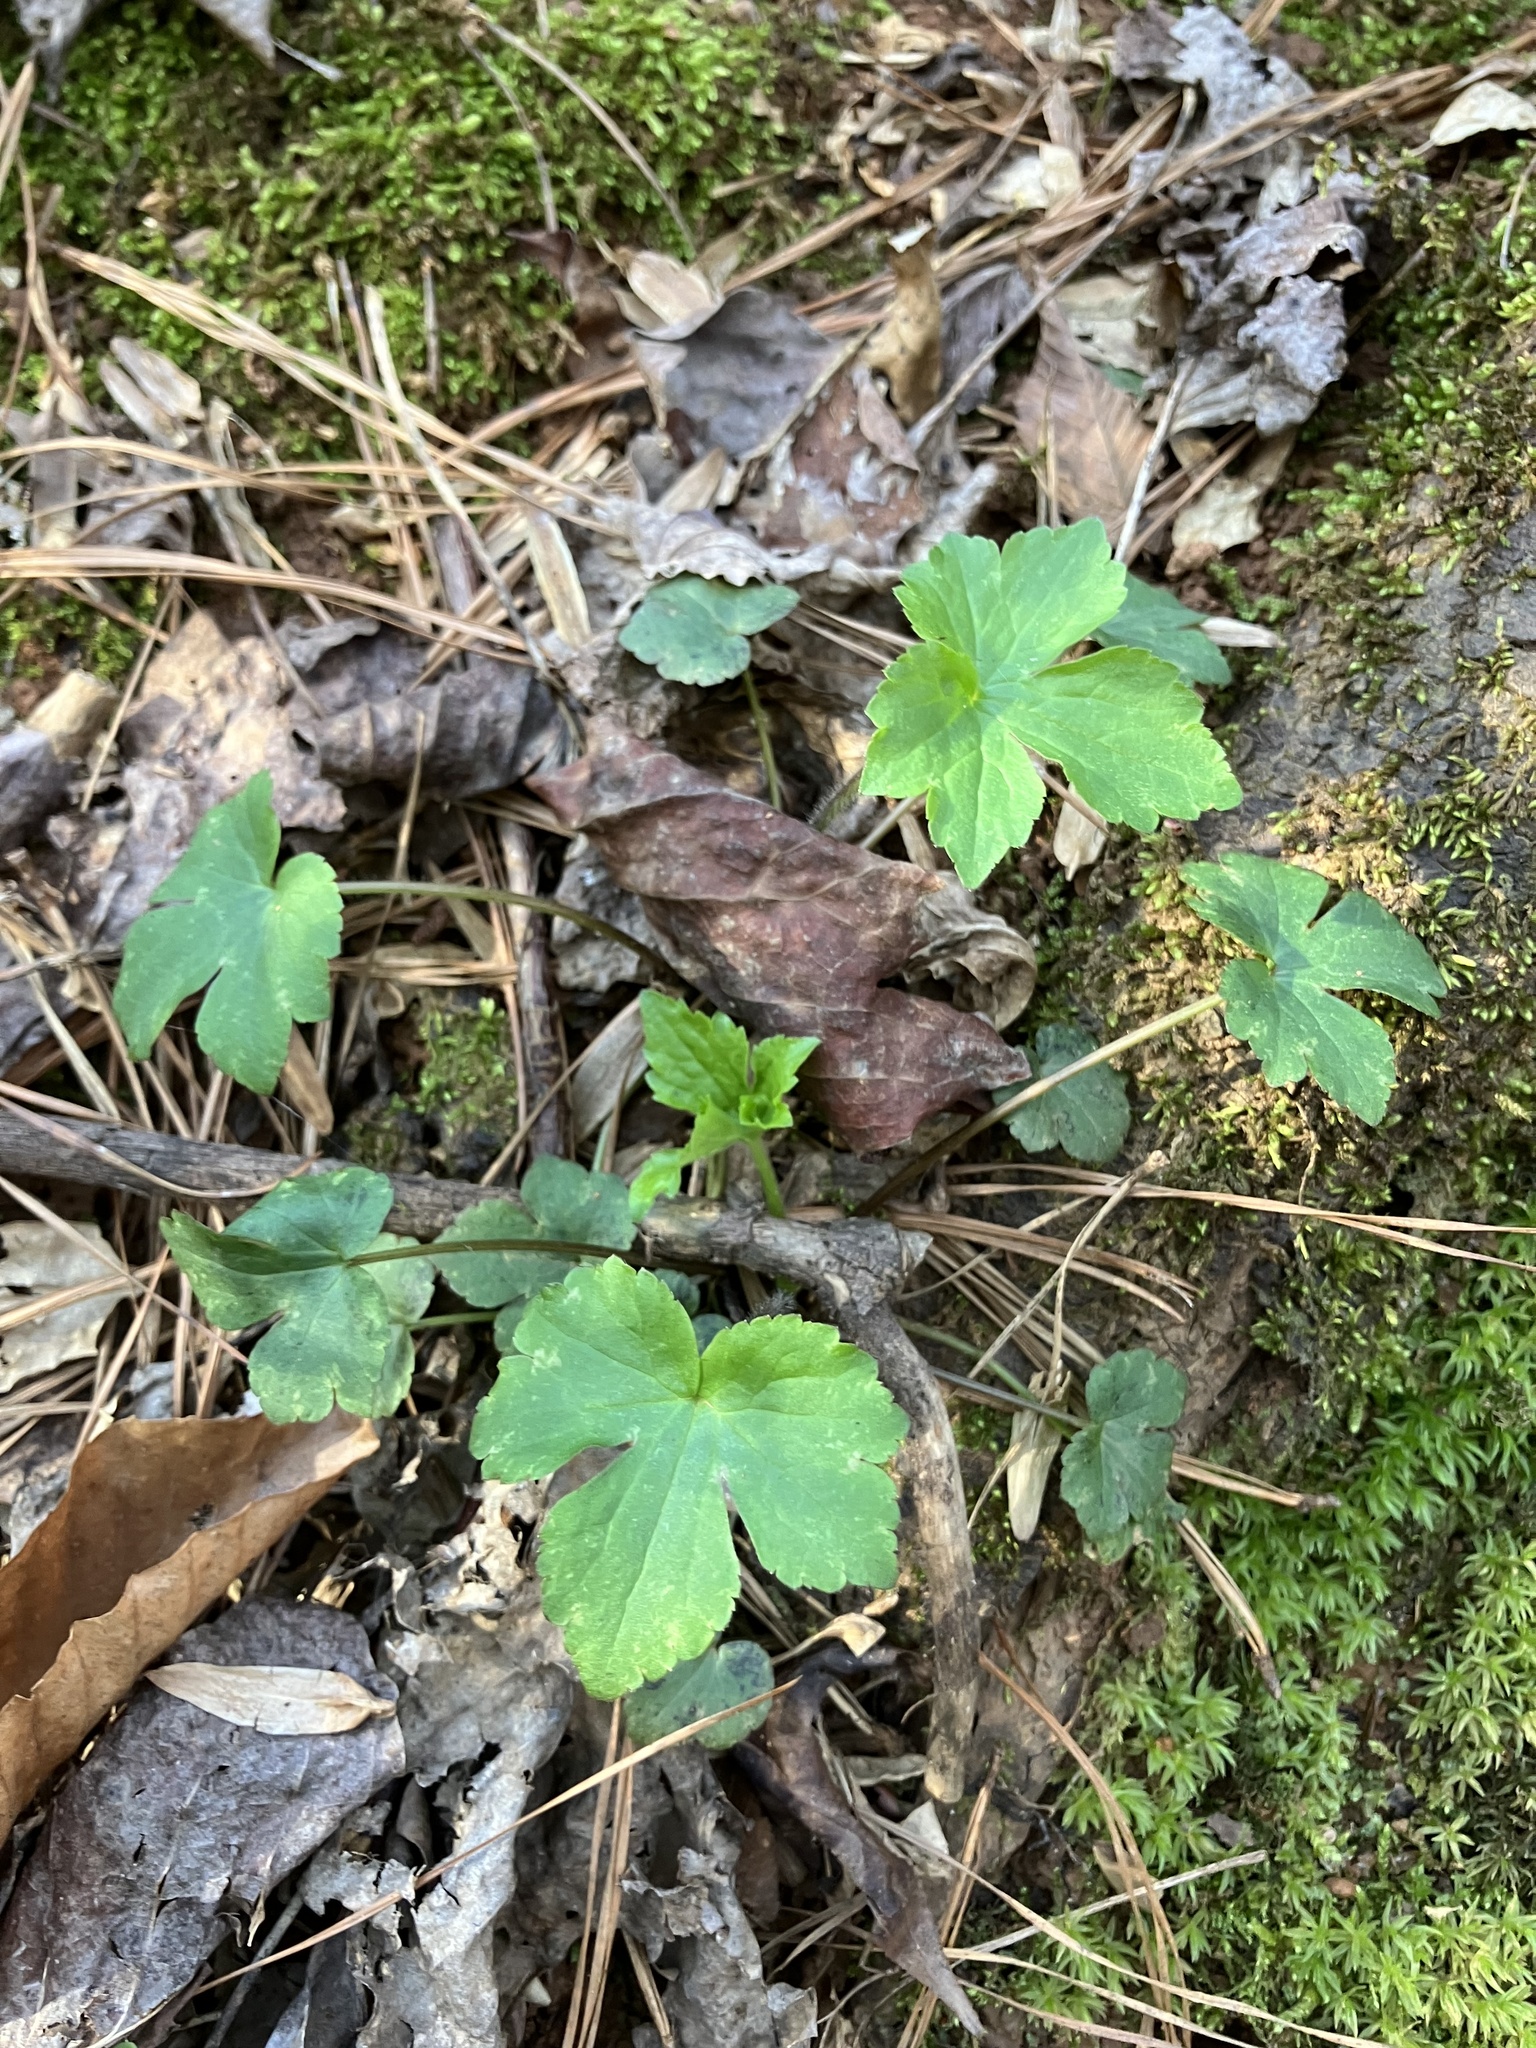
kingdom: Plantae
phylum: Tracheophyta
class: Magnoliopsida
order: Ranunculales
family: Ranunculaceae
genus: Ranunculus
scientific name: Ranunculus recurvatus
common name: Blisterwort
